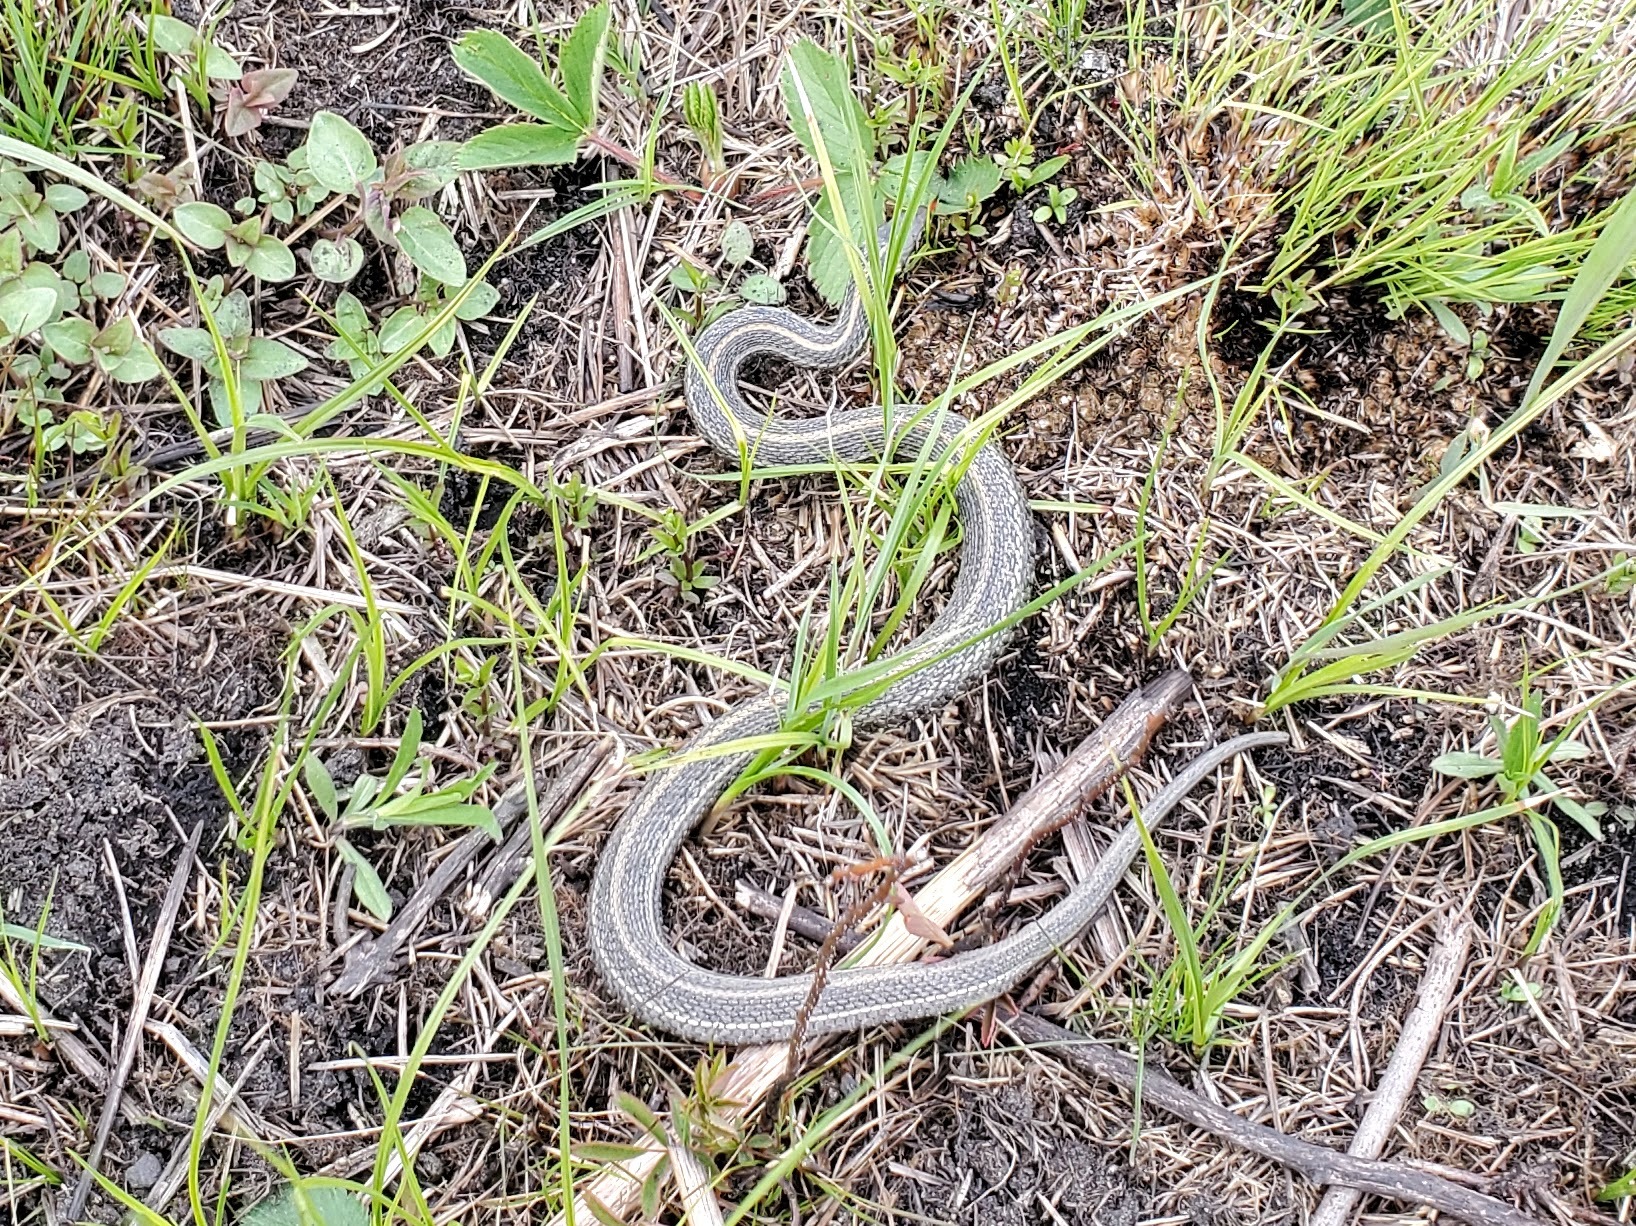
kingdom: Animalia
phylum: Chordata
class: Squamata
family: Colubridae
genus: Thamnophis
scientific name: Thamnophis radix
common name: Plains garter snake
